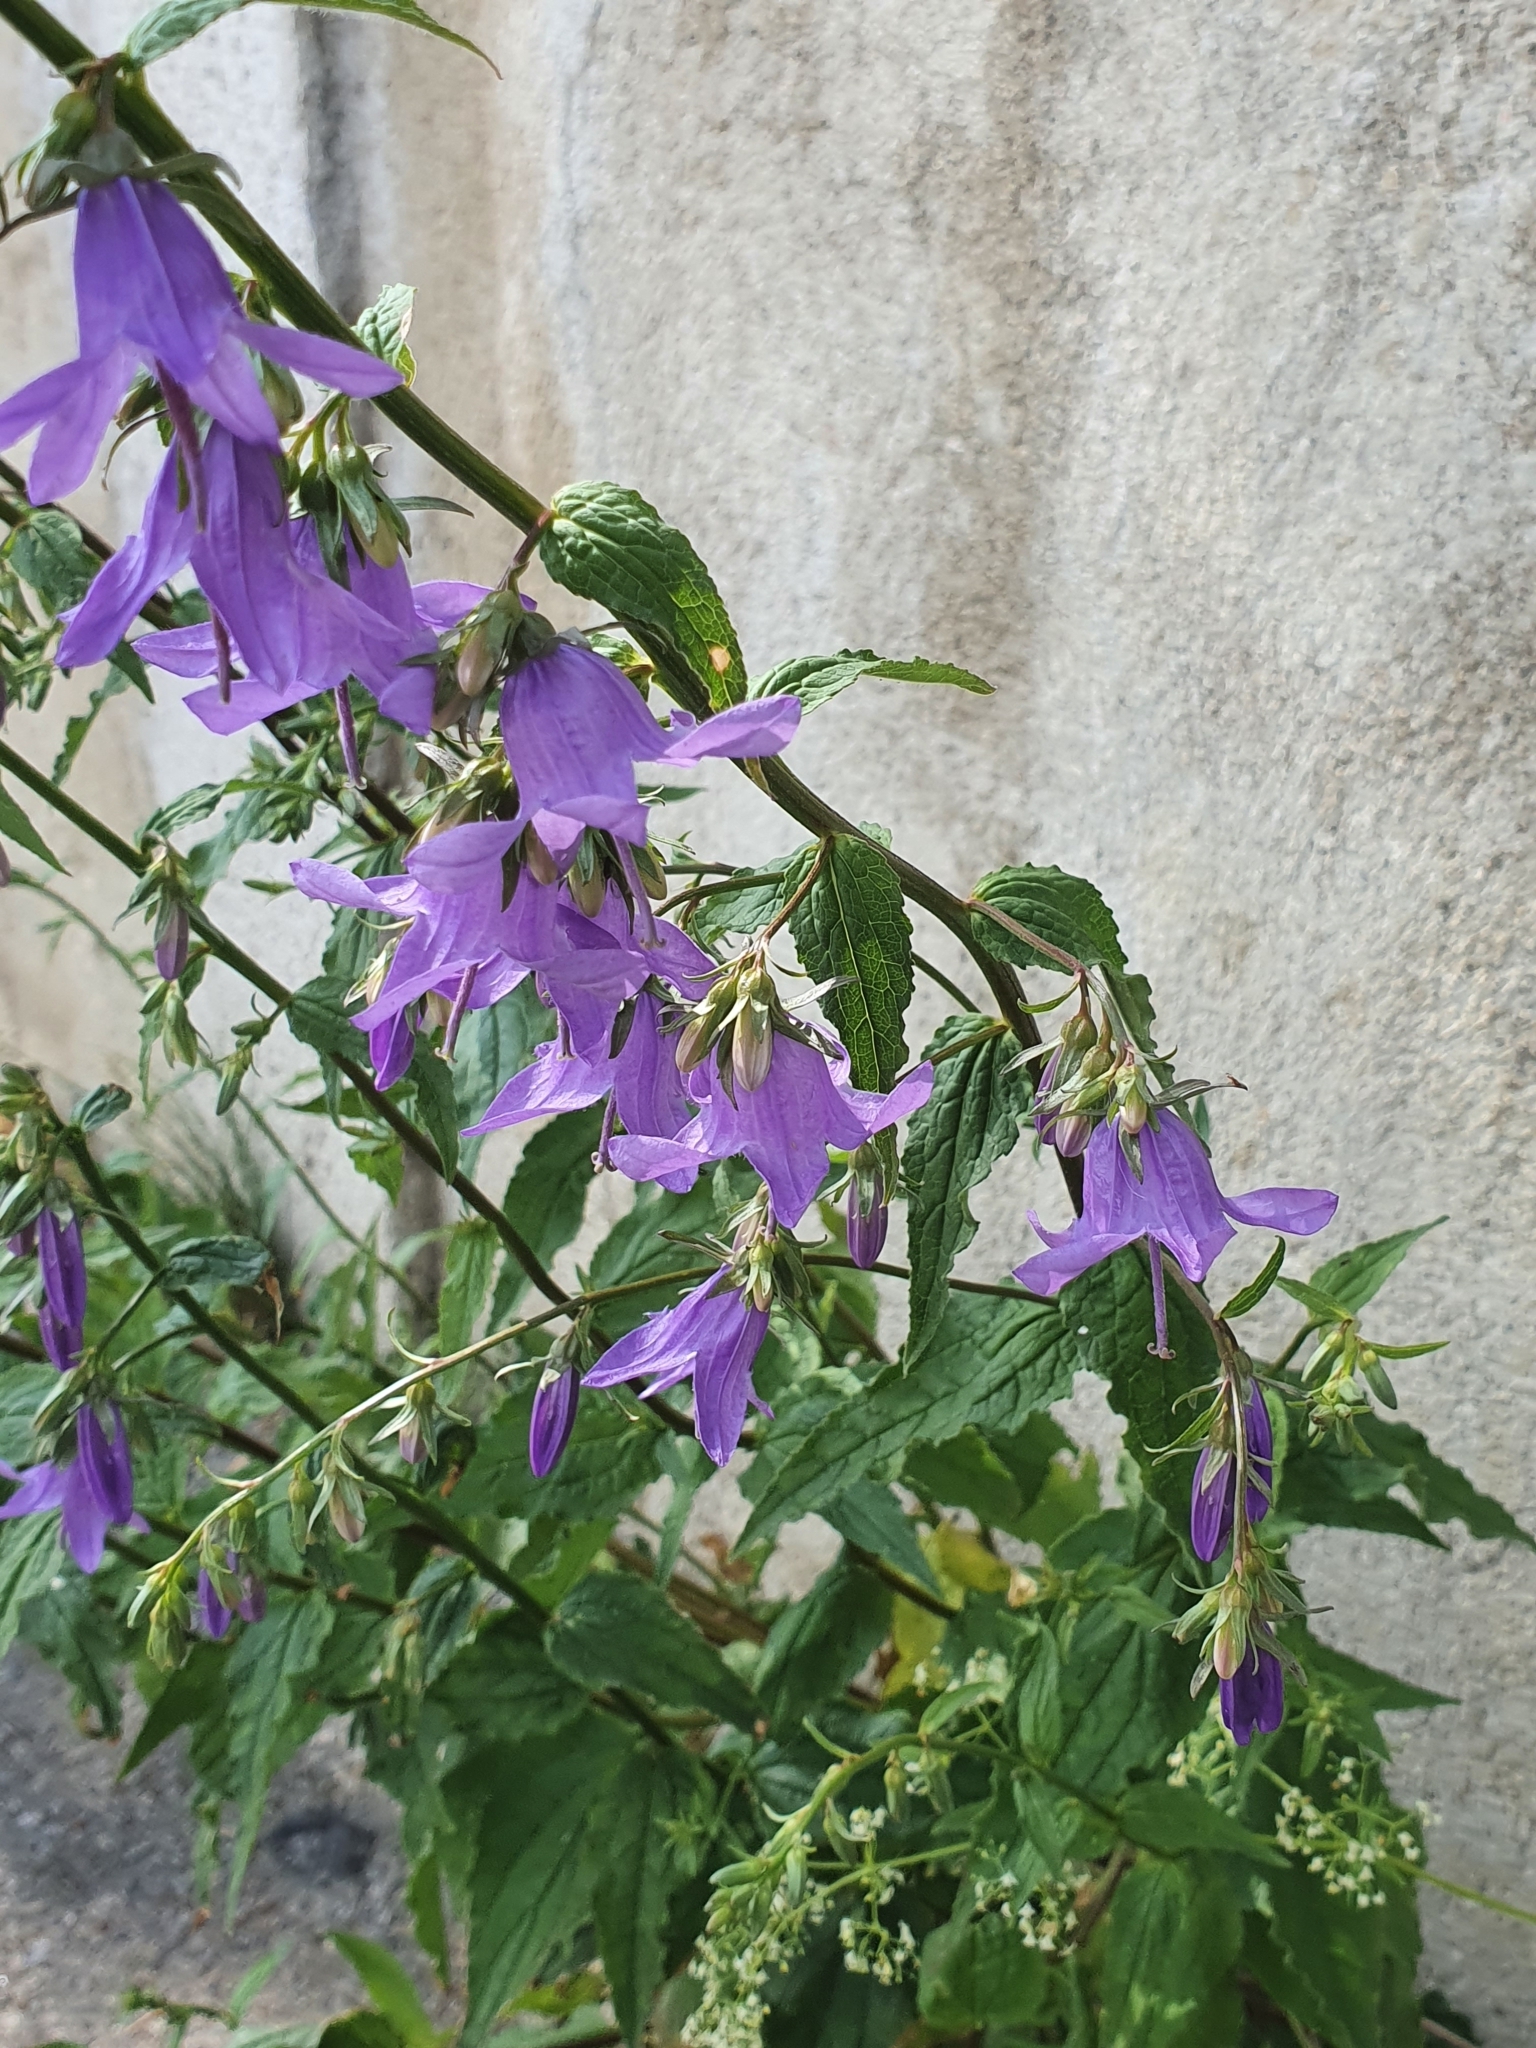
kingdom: Plantae
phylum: Tracheophyta
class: Magnoliopsida
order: Asterales
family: Campanulaceae
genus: Campanula
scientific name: Campanula rapunculoides
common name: Creeping bellflower
